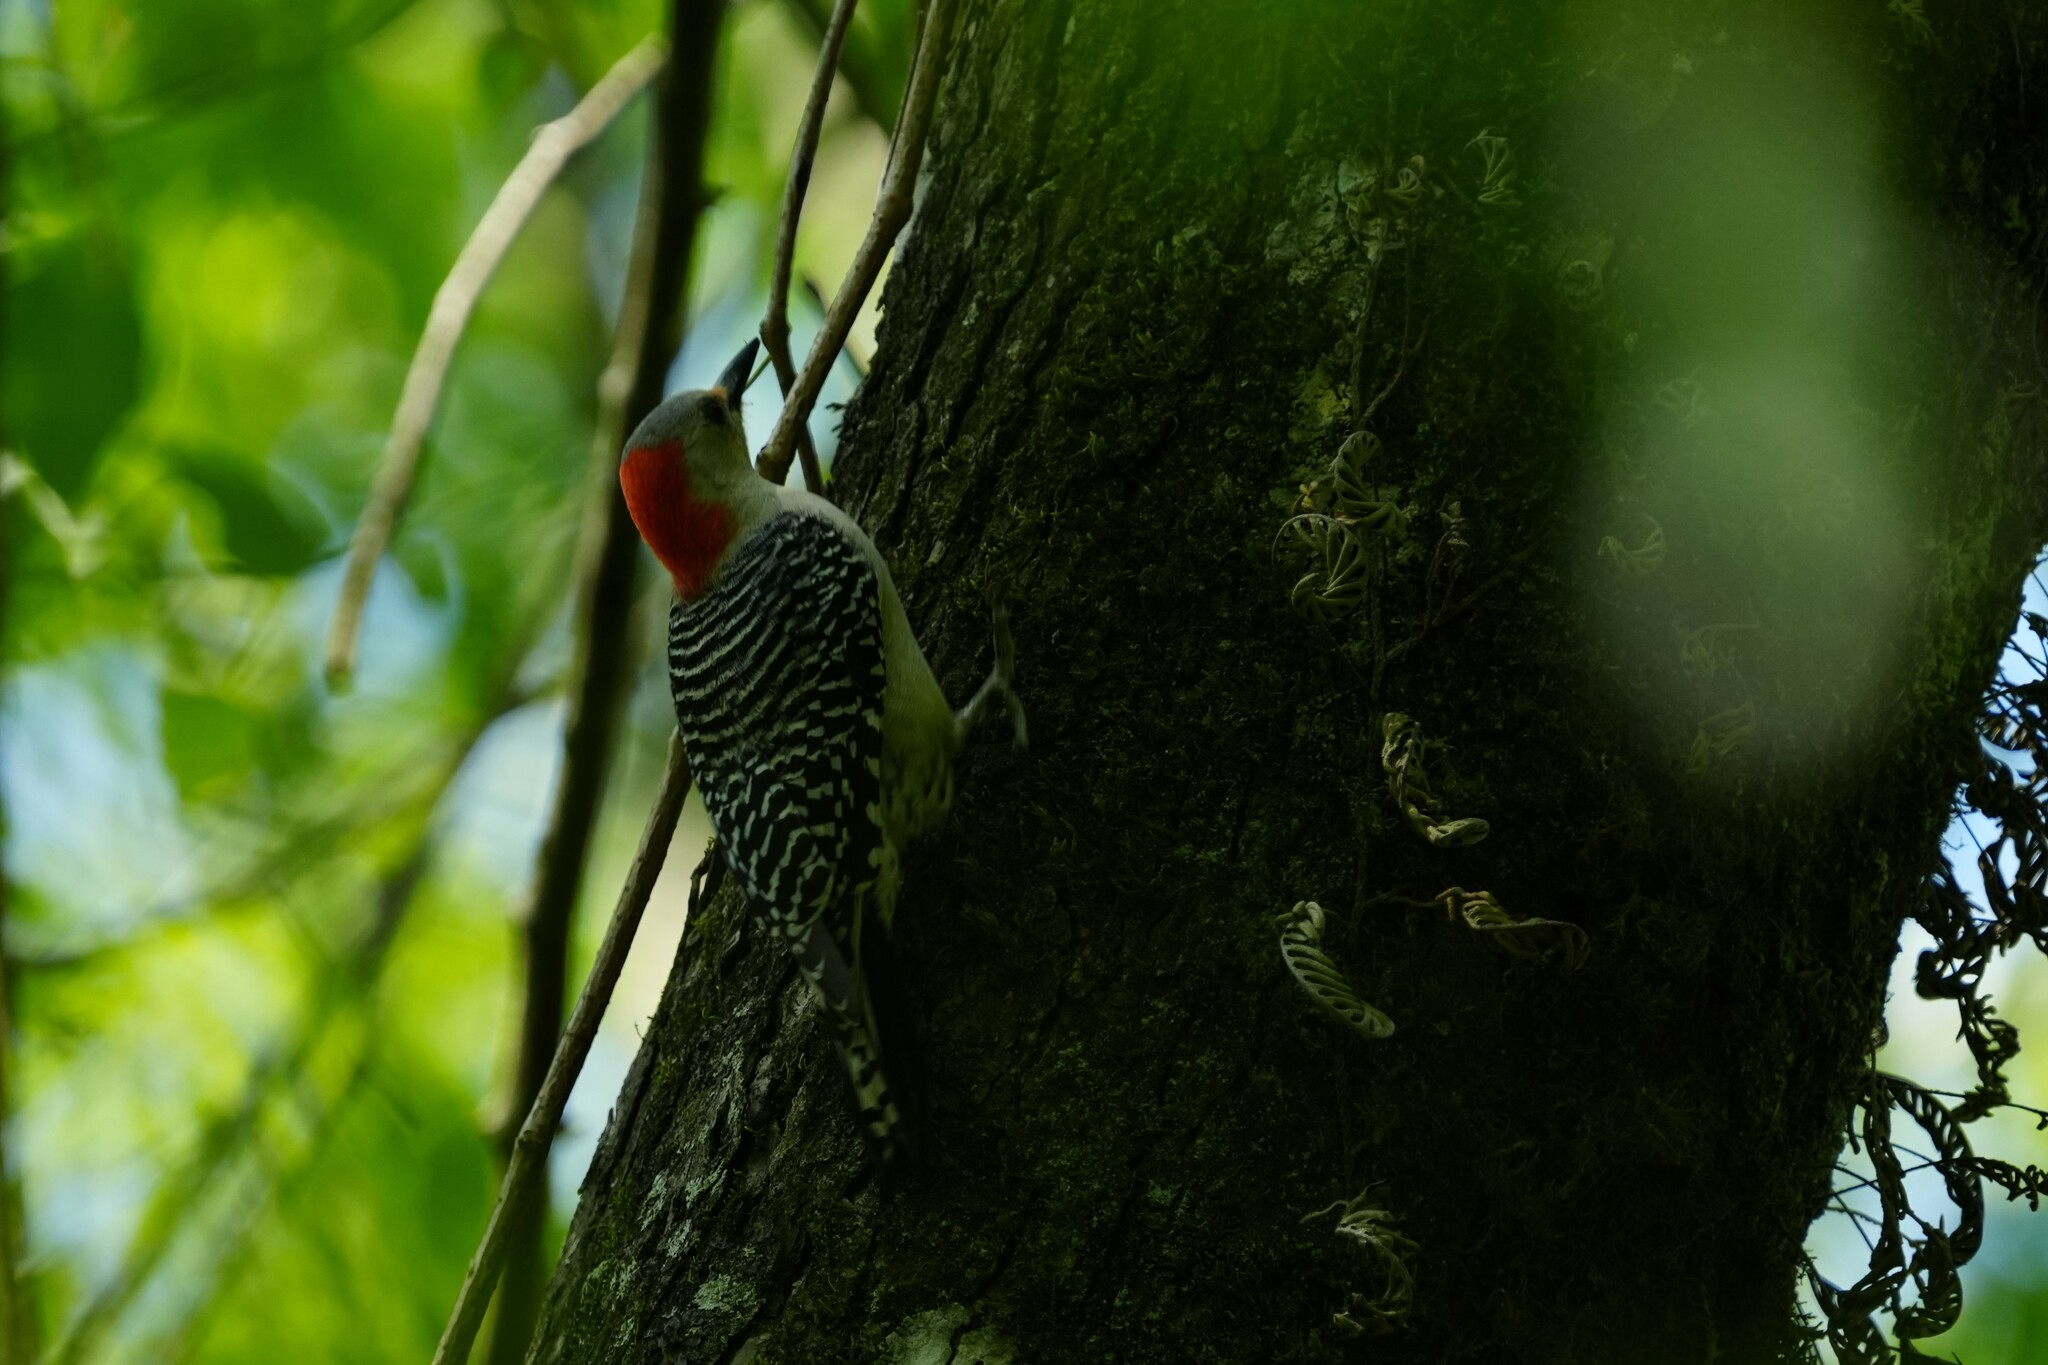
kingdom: Animalia
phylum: Chordata
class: Aves
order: Piciformes
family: Picidae
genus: Melanerpes
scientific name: Melanerpes carolinus
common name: Red-bellied woodpecker
